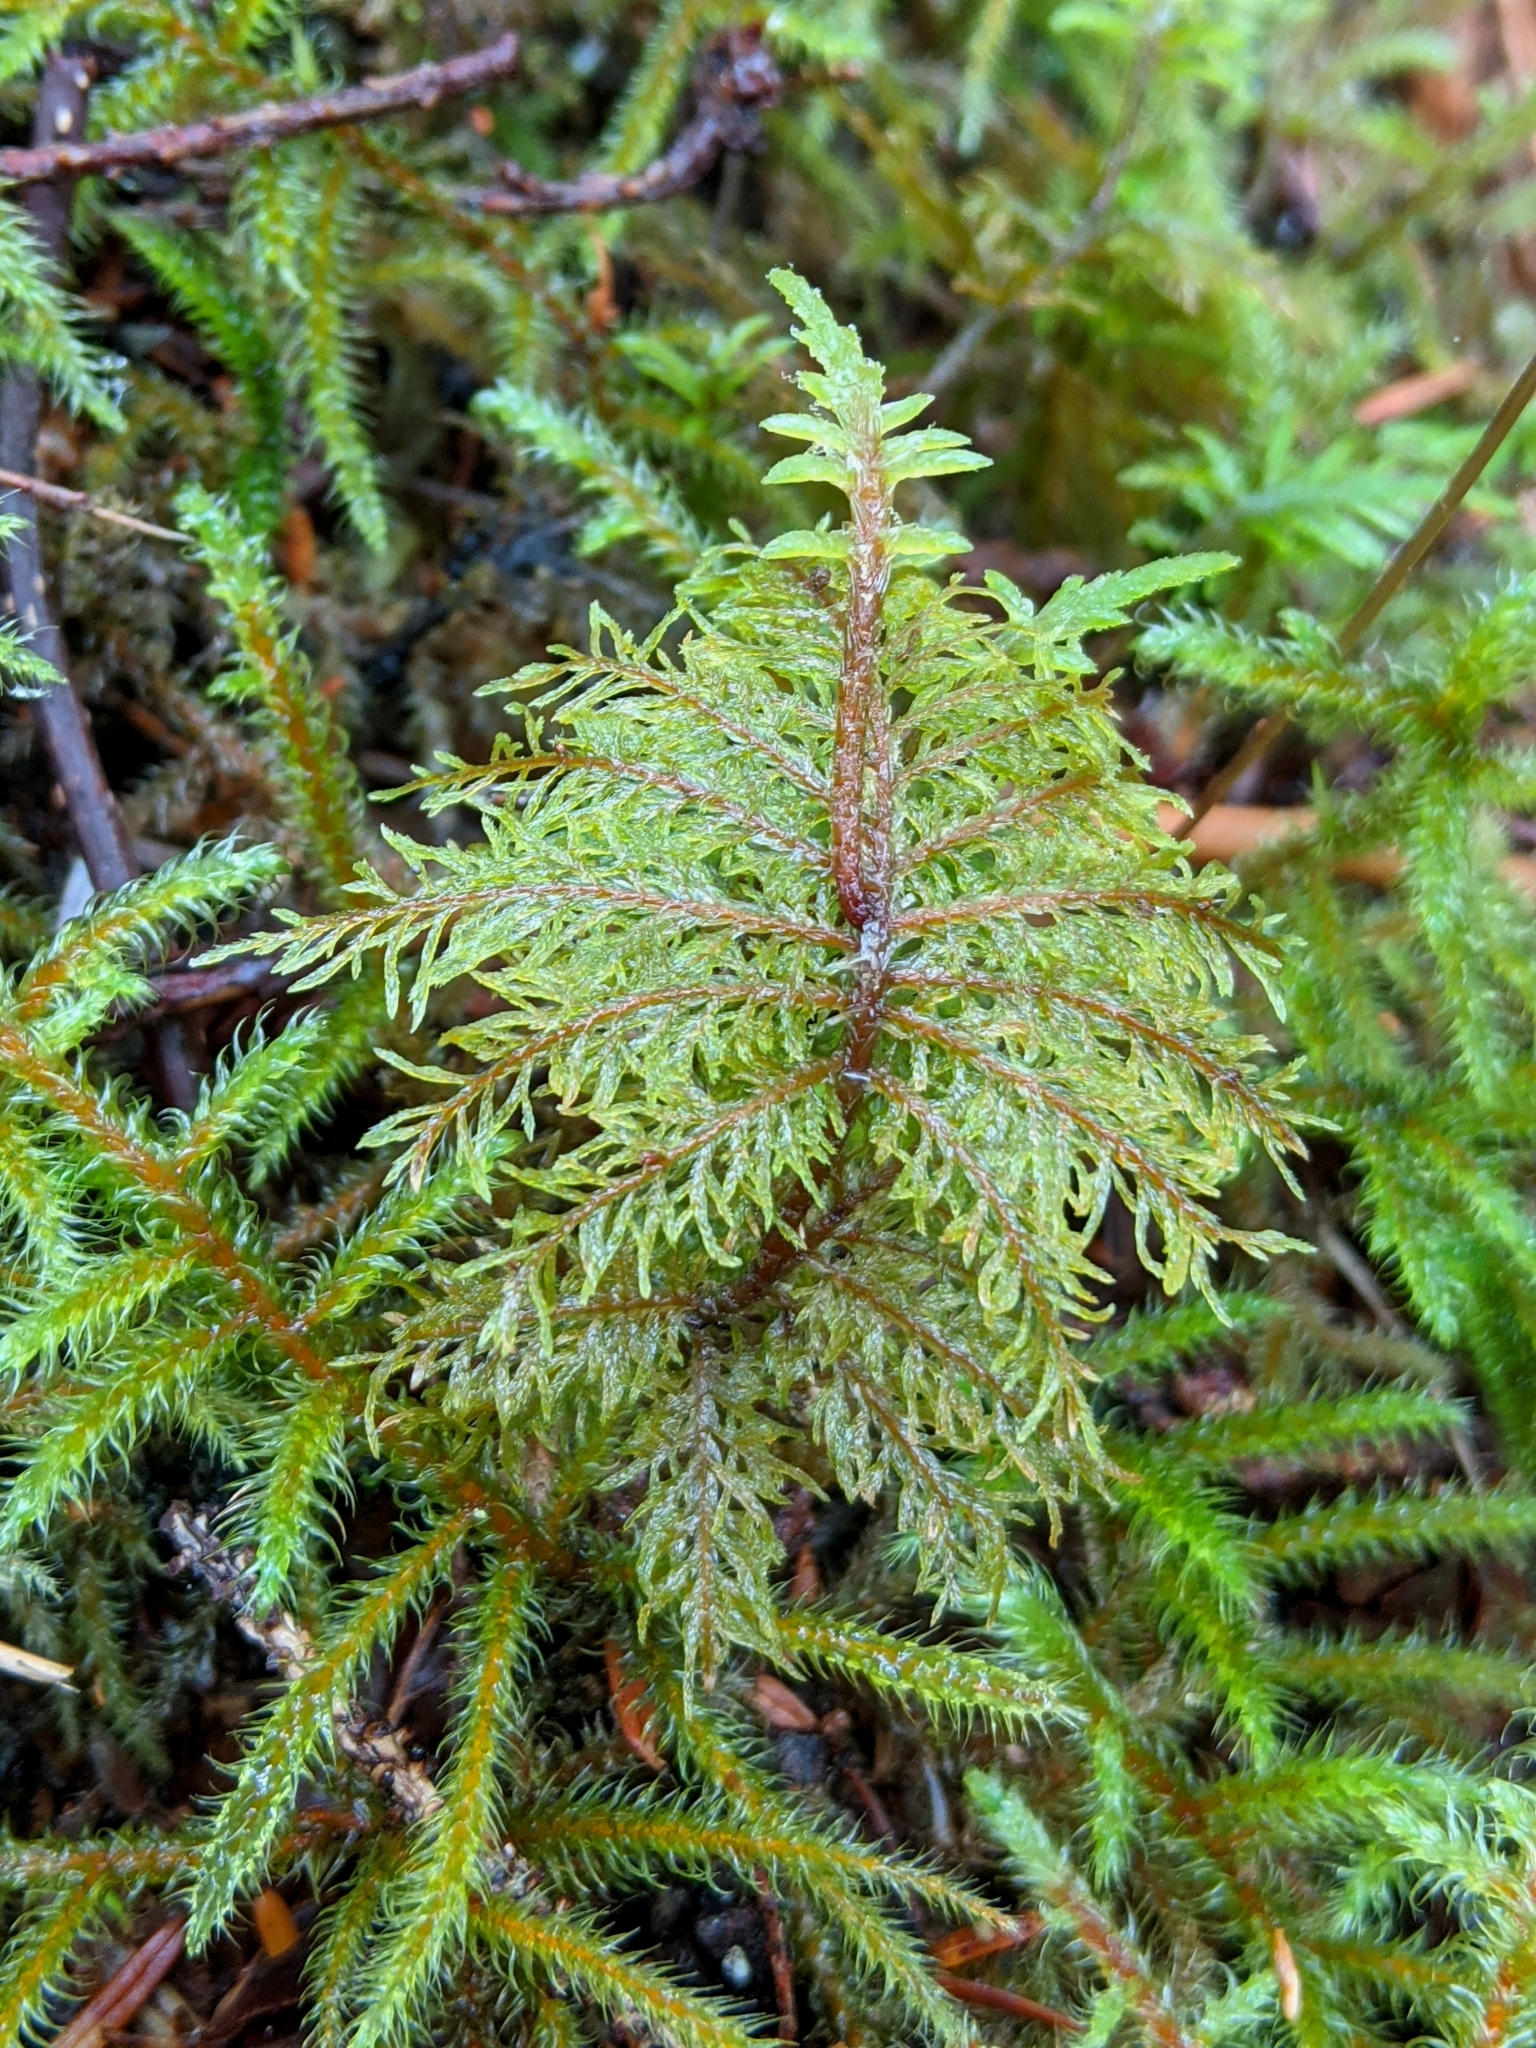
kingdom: Plantae
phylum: Bryophyta
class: Bryopsida
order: Hypnales
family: Hylocomiaceae
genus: Hylocomium
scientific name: Hylocomium splendens
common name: Stairstep moss
